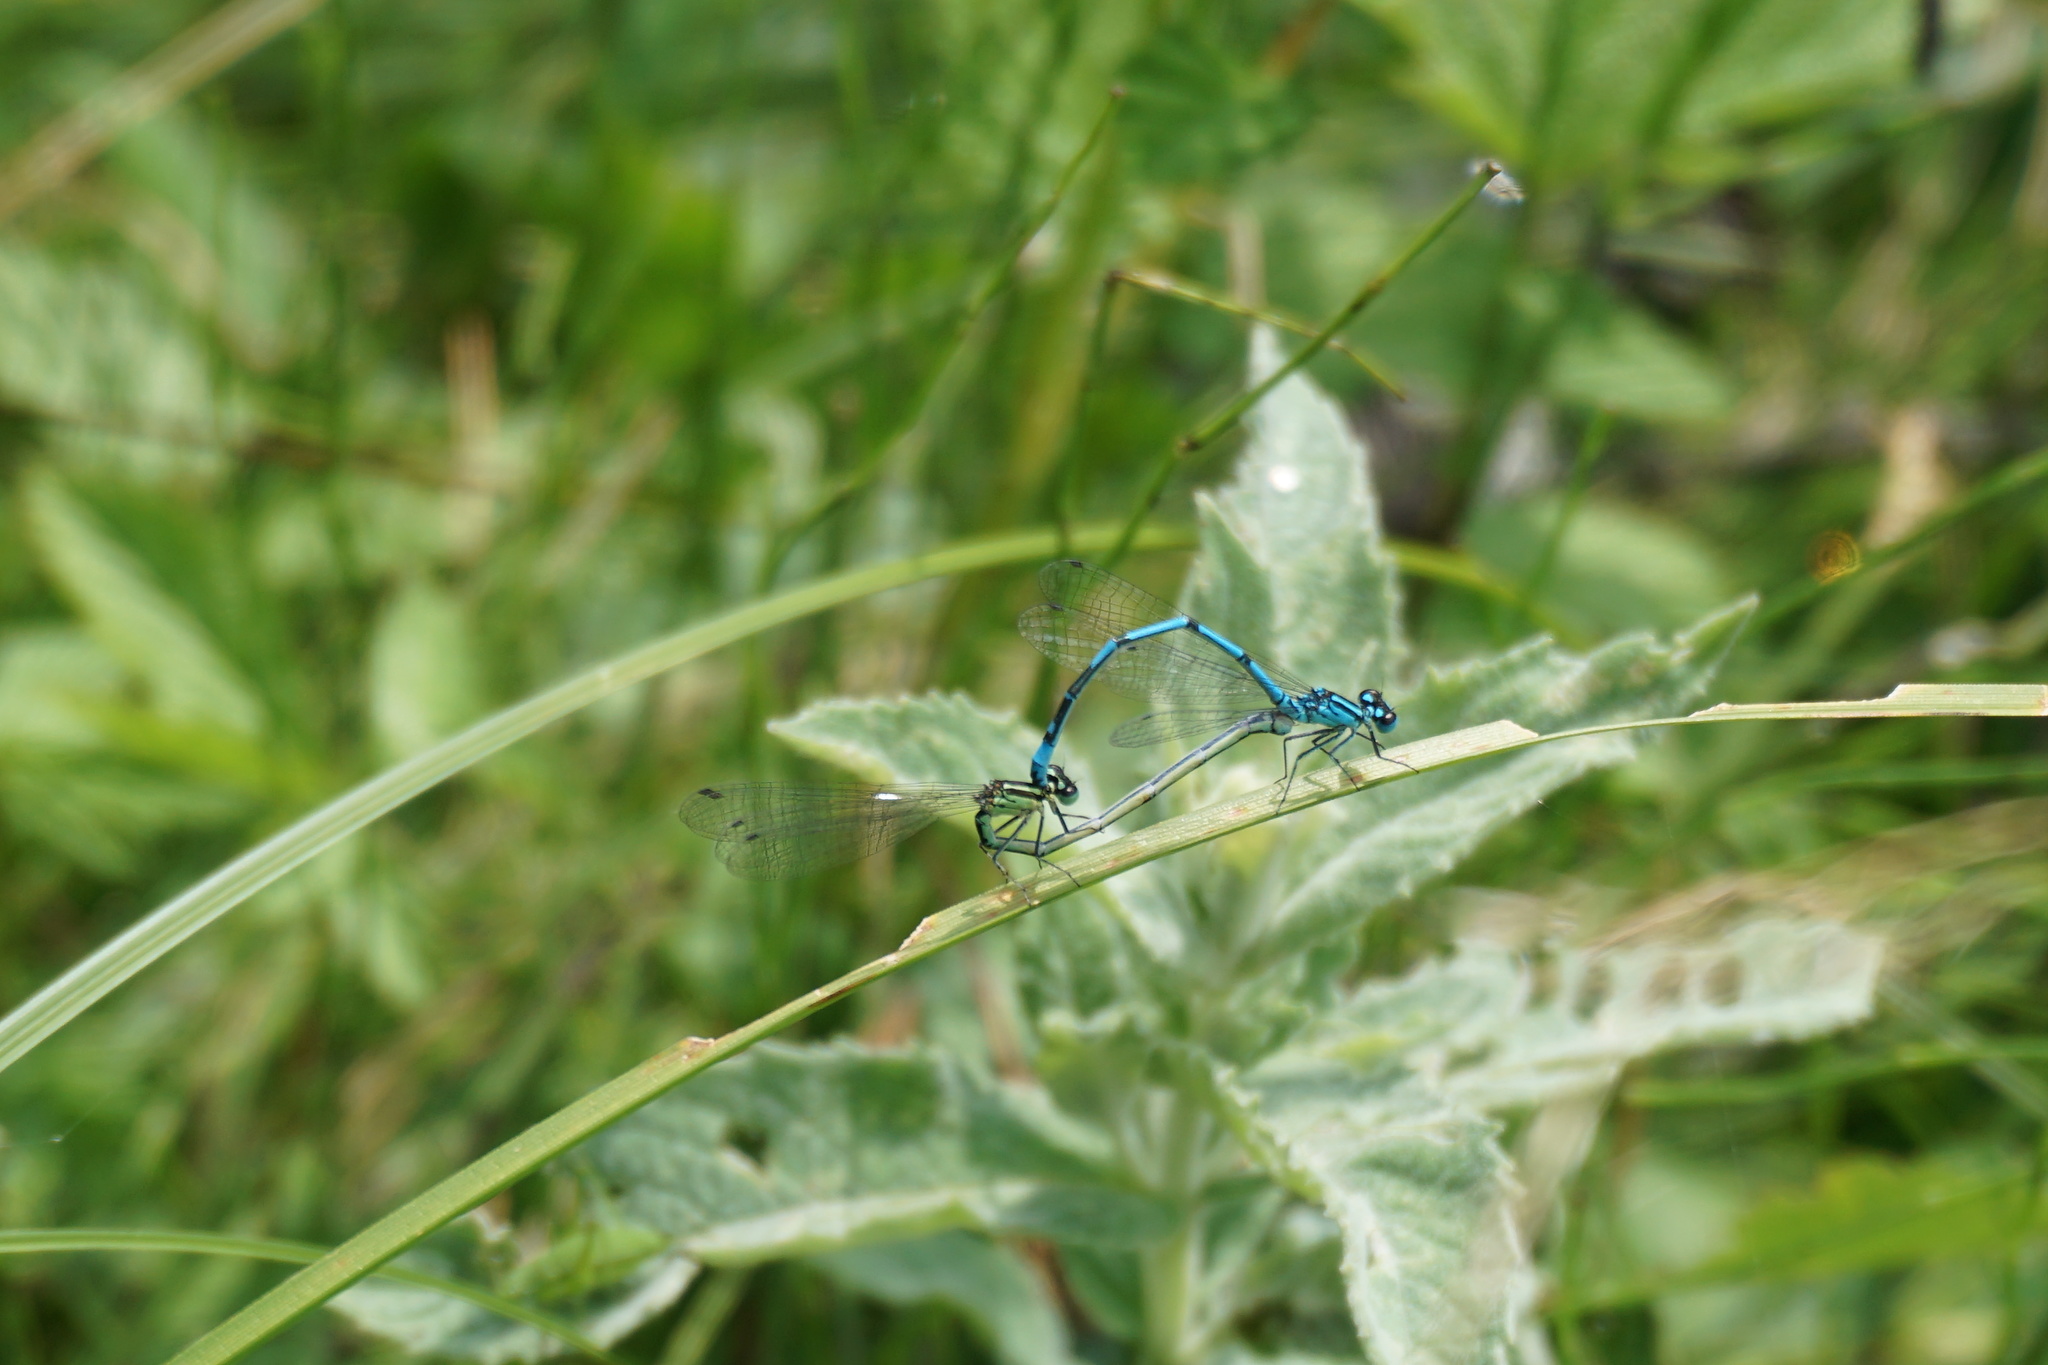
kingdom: Animalia
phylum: Arthropoda
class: Insecta
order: Odonata
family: Coenagrionidae
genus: Coenagrion
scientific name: Coenagrion puella
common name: Azure damselfly
